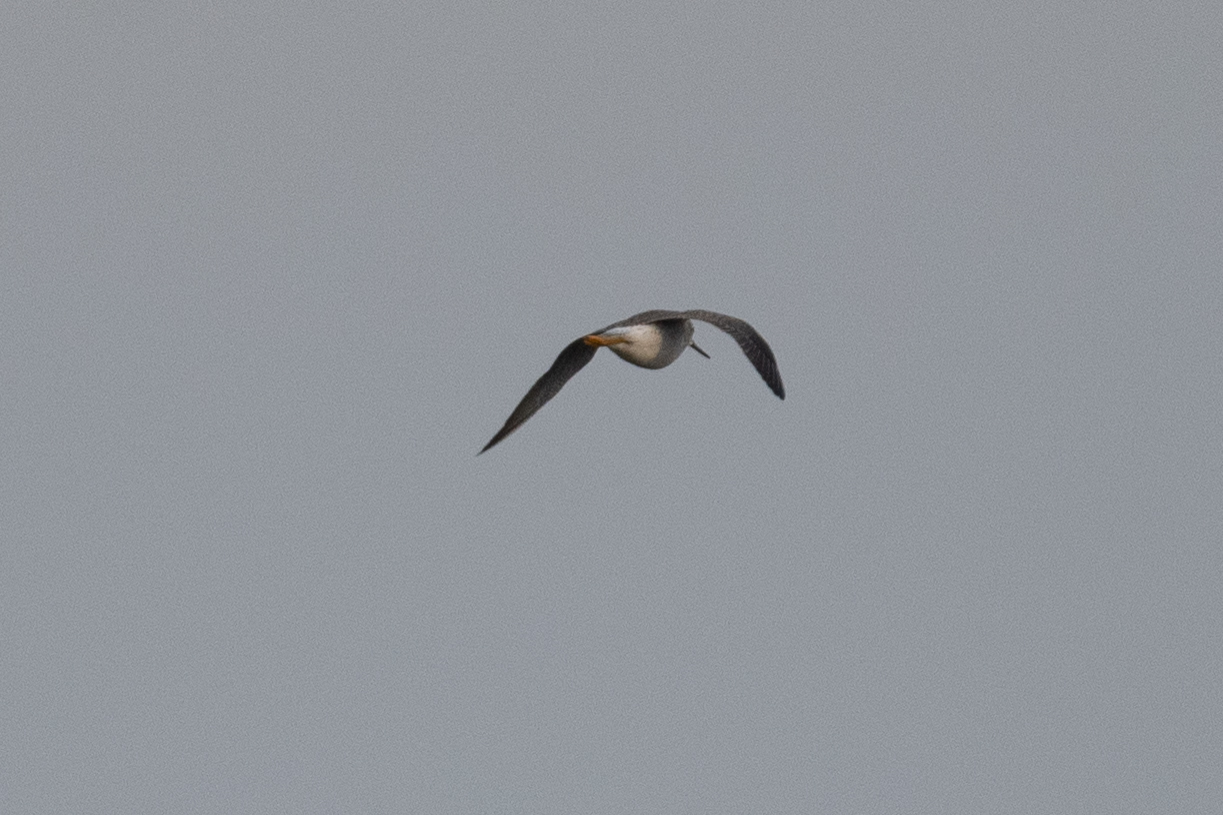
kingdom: Animalia
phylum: Chordata
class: Aves
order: Charadriiformes
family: Scolopacidae
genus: Tringa
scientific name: Tringa melanoleuca
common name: Greater yellowlegs
